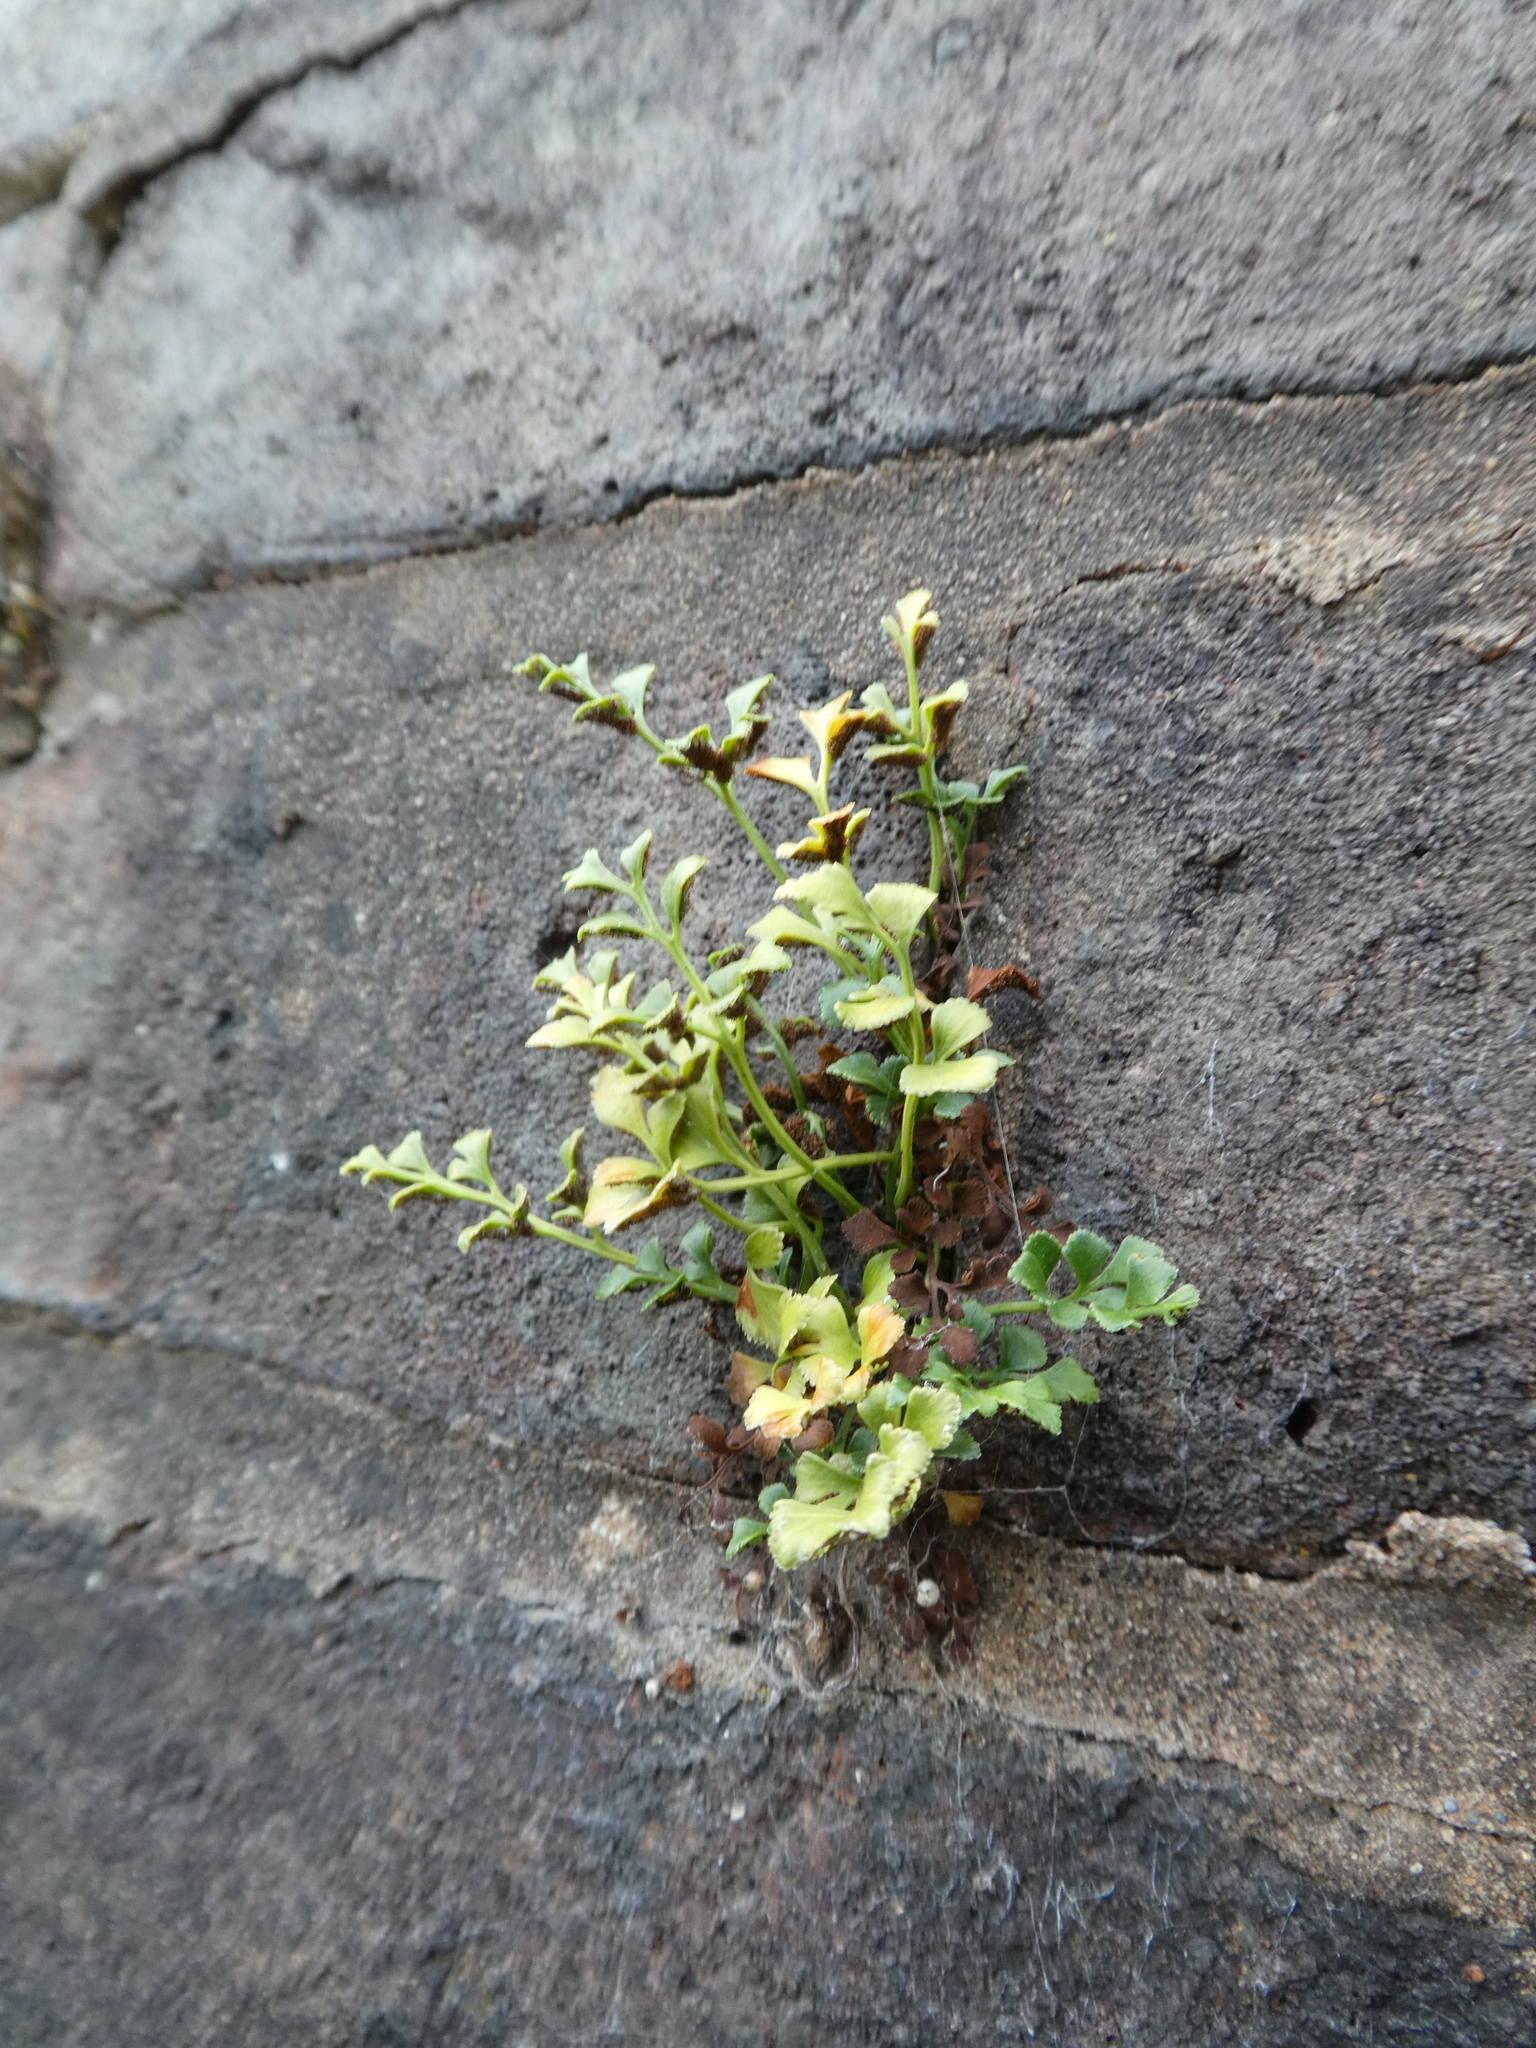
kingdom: Plantae
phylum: Tracheophyta
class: Polypodiopsida
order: Polypodiales
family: Aspleniaceae
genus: Asplenium
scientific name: Asplenium ruta-muraria
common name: Wall-rue
